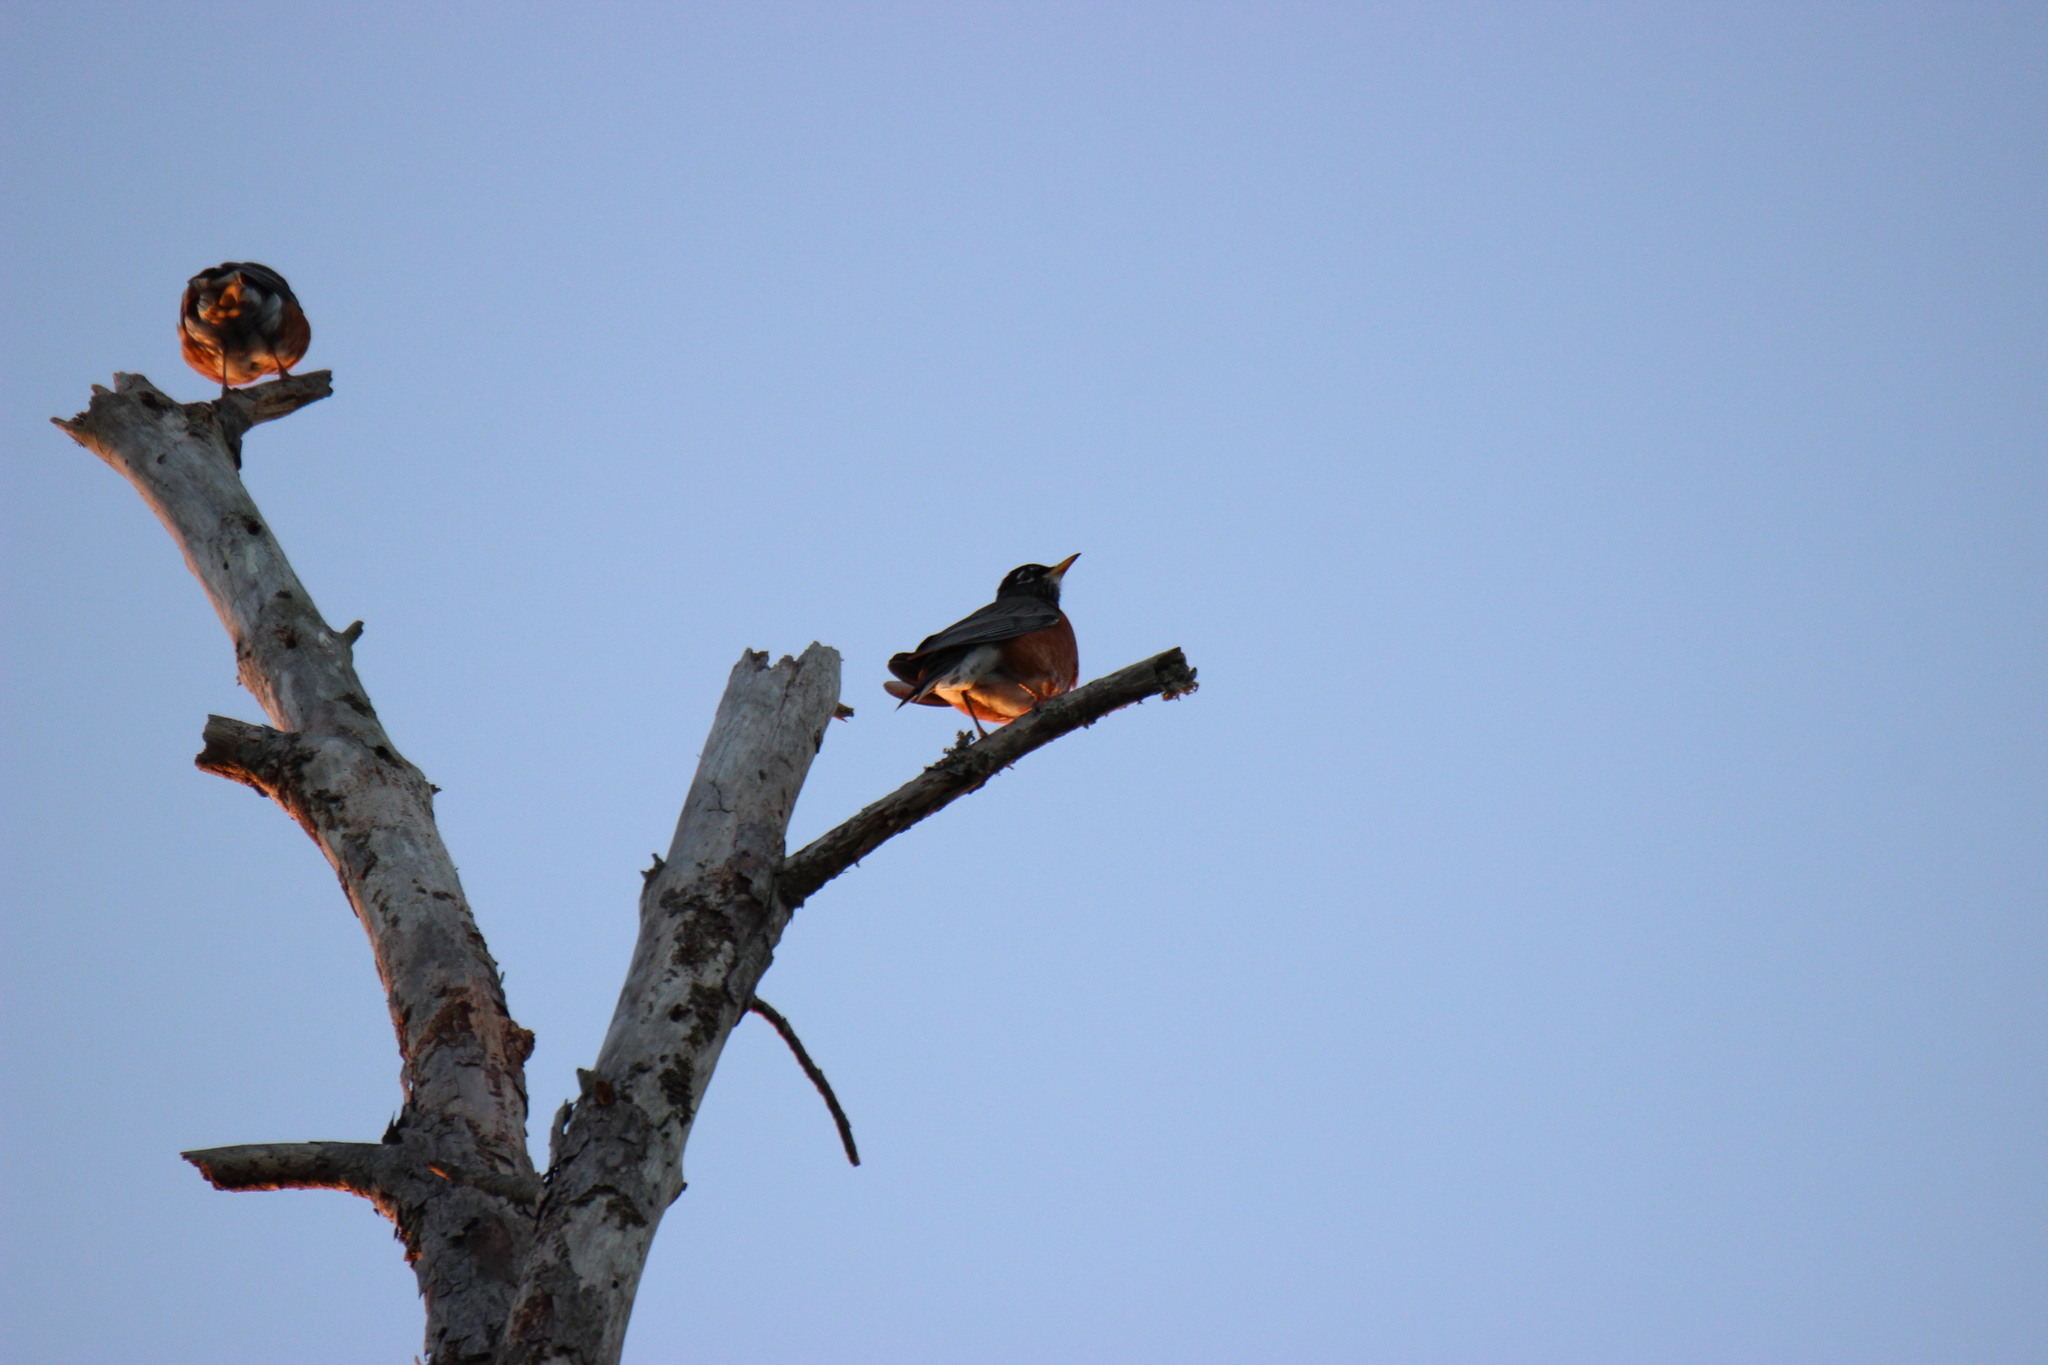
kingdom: Animalia
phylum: Chordata
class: Aves
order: Passeriformes
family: Turdidae
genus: Turdus
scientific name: Turdus migratorius
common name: American robin
